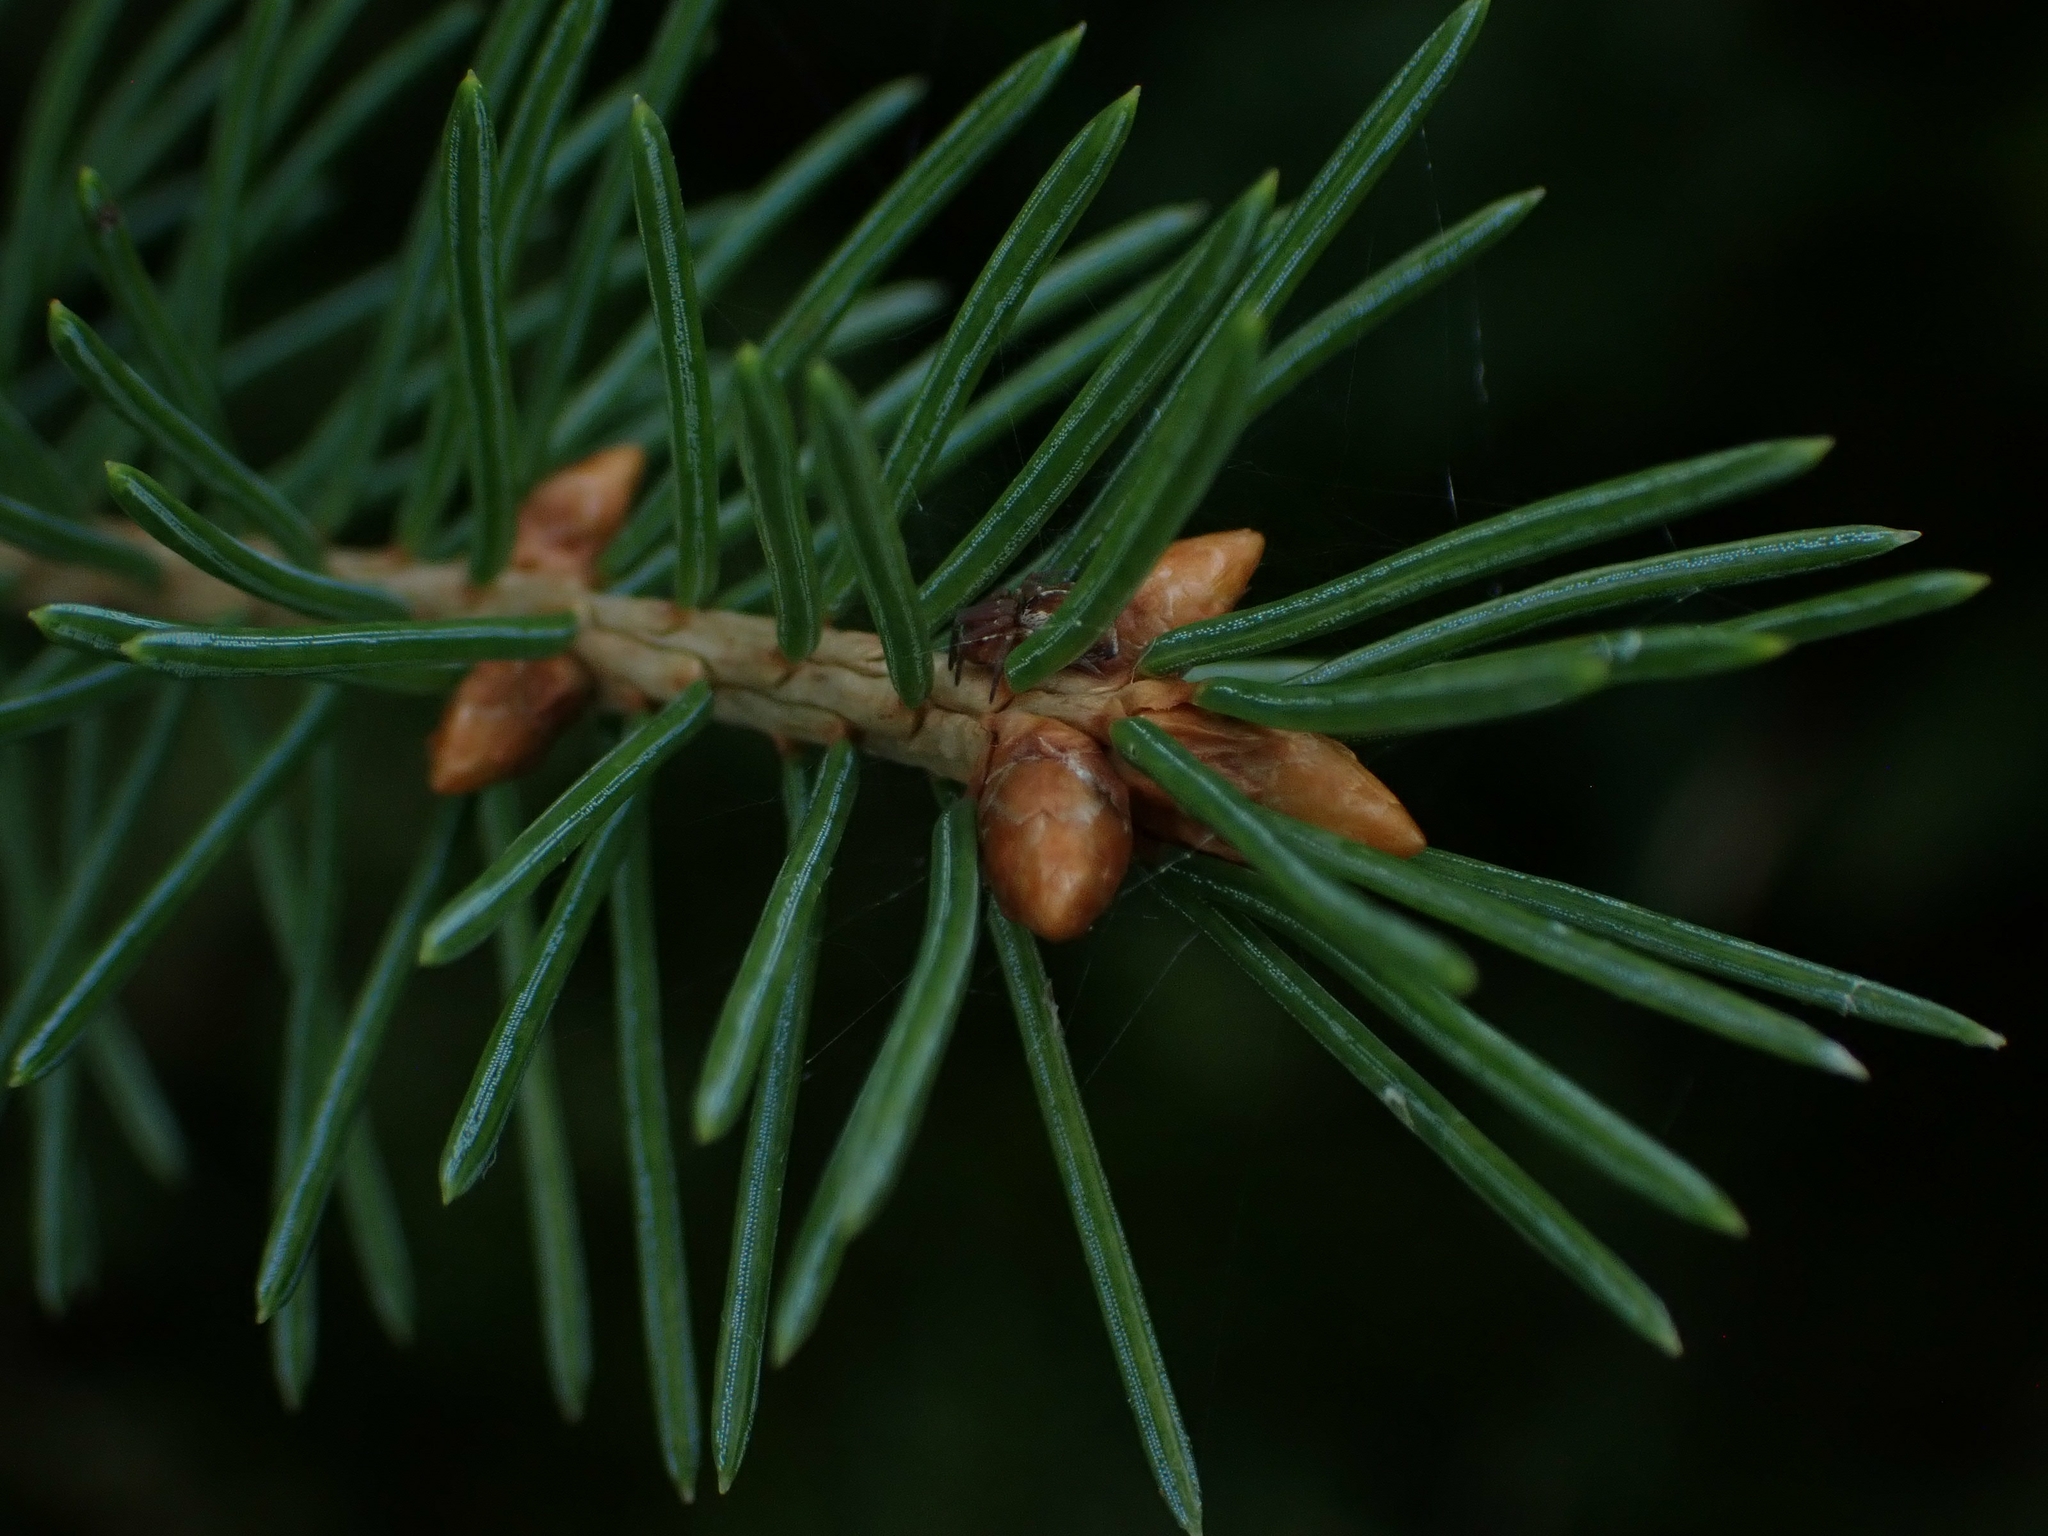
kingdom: Plantae
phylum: Tracheophyta
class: Pinopsida
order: Pinales
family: Pinaceae
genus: Picea
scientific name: Picea glauca
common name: White spruce
